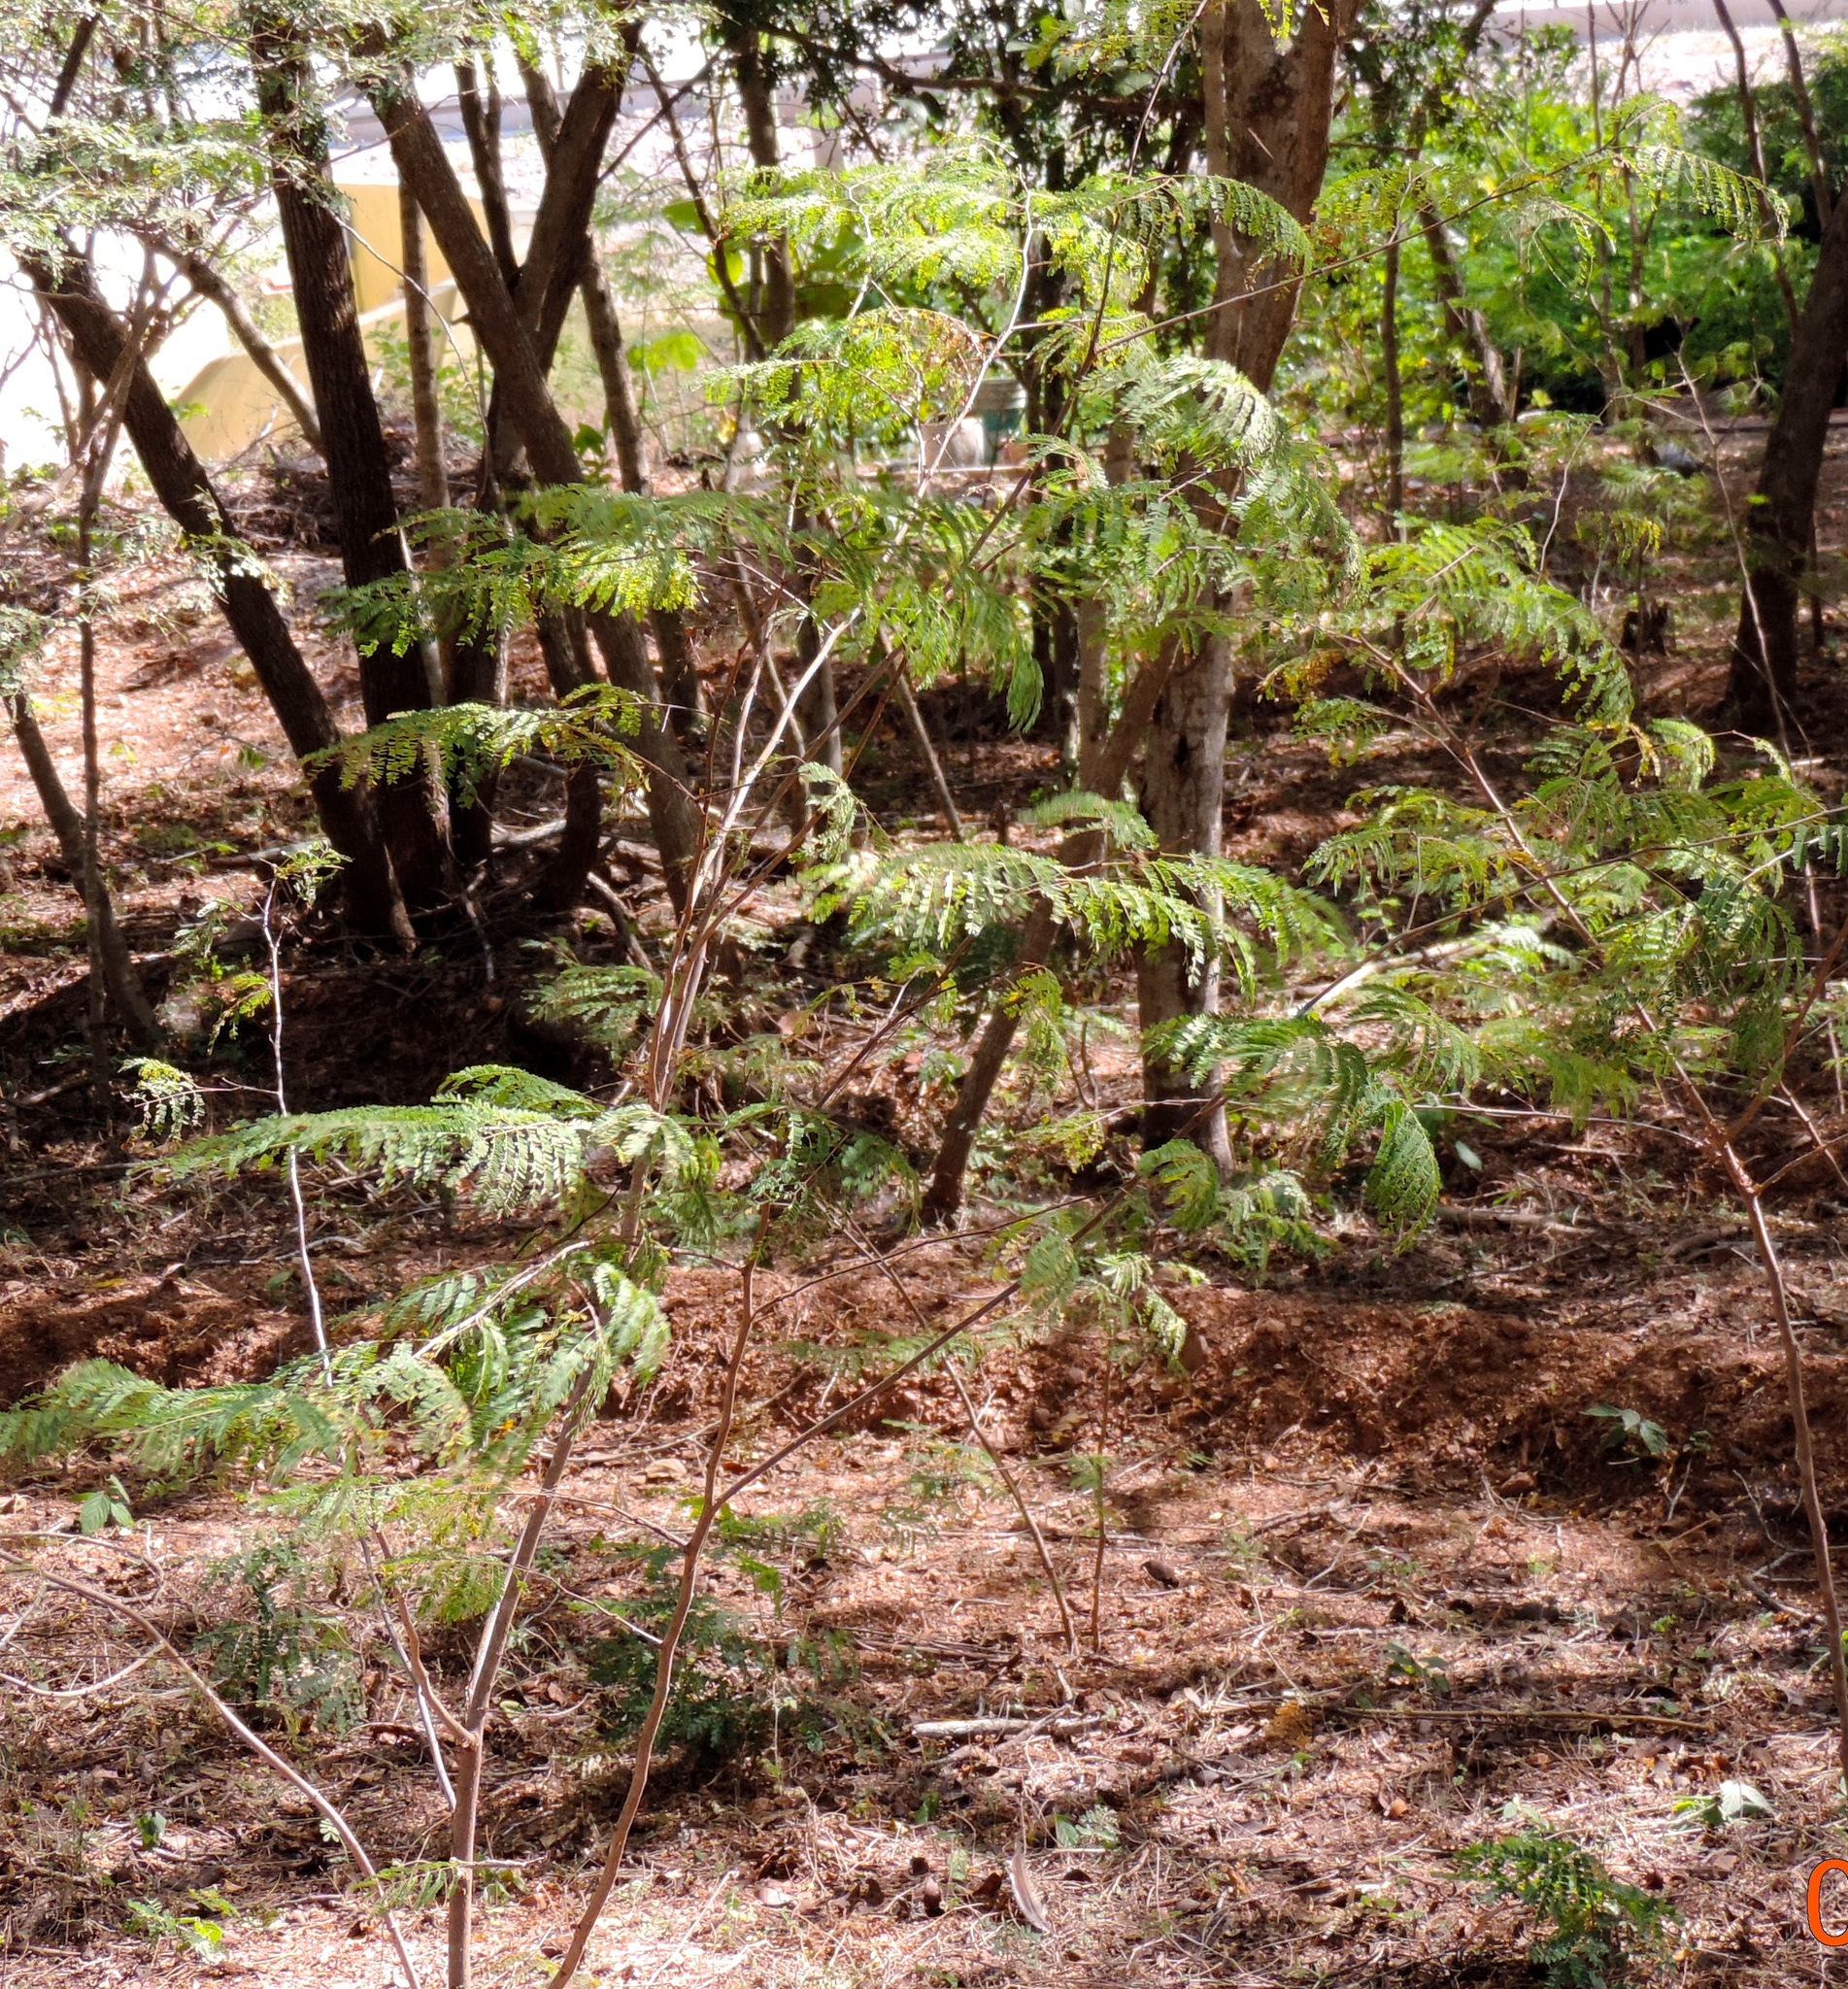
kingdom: Plantae
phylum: Tracheophyta
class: Magnoliopsida
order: Fabales
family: Fabaceae
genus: Lysiloma
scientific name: Lysiloma divaricatum
